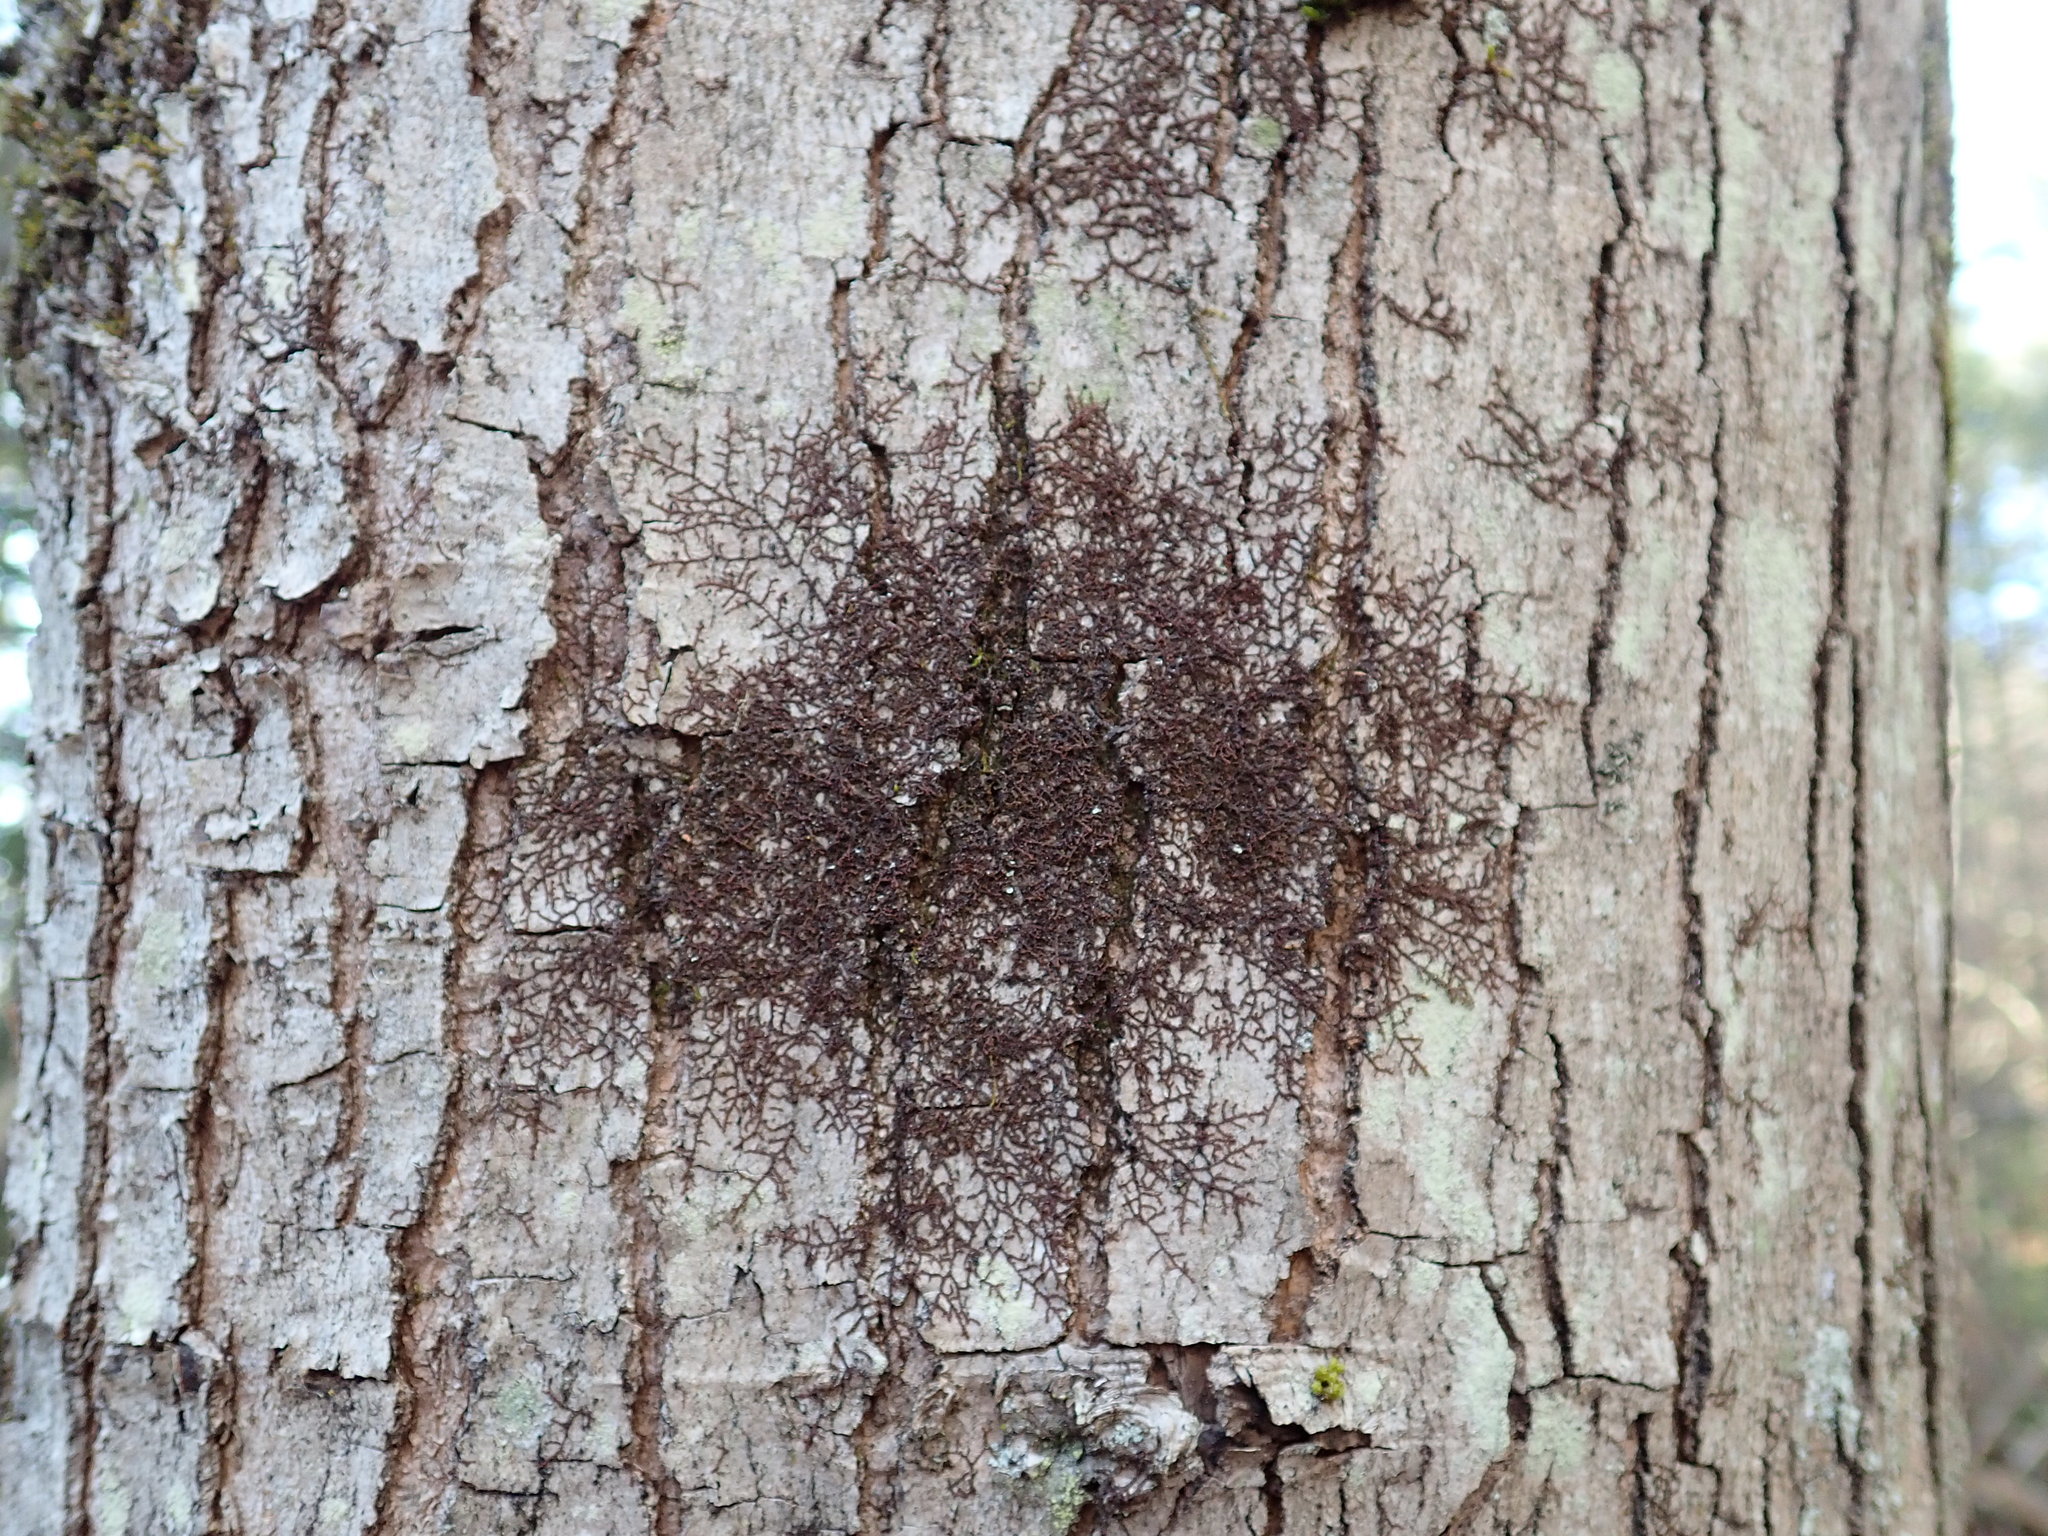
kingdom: Plantae
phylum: Marchantiophyta
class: Jungermanniopsida
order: Porellales
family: Frullaniaceae
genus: Frullania
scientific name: Frullania eboracensis
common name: New york scalewort
